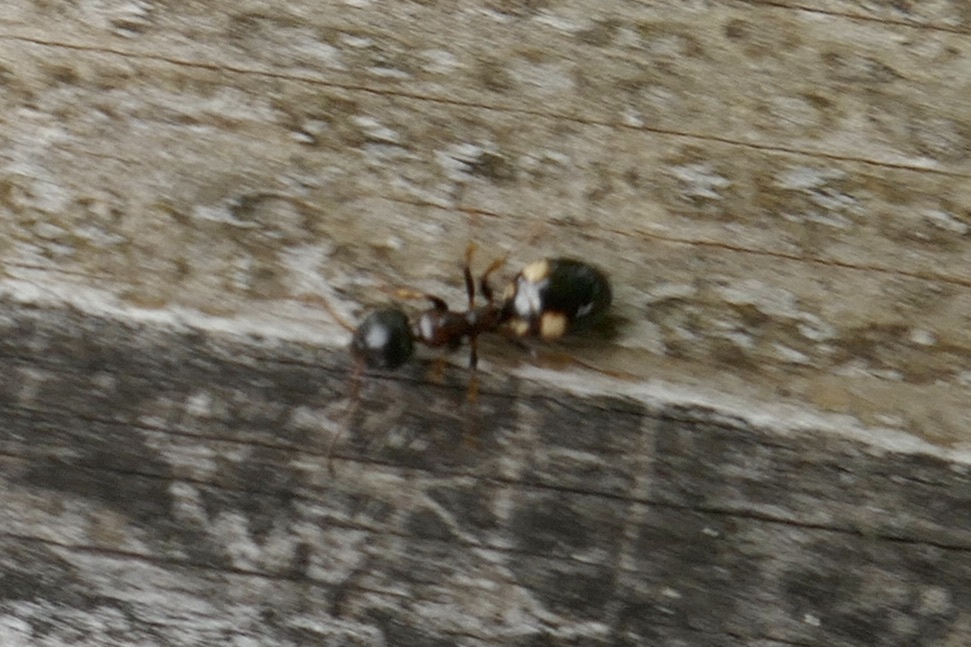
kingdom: Animalia
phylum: Arthropoda
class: Insecta
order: Hymenoptera
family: Formicidae
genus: Dolichoderus
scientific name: Dolichoderus quadripunctatus
